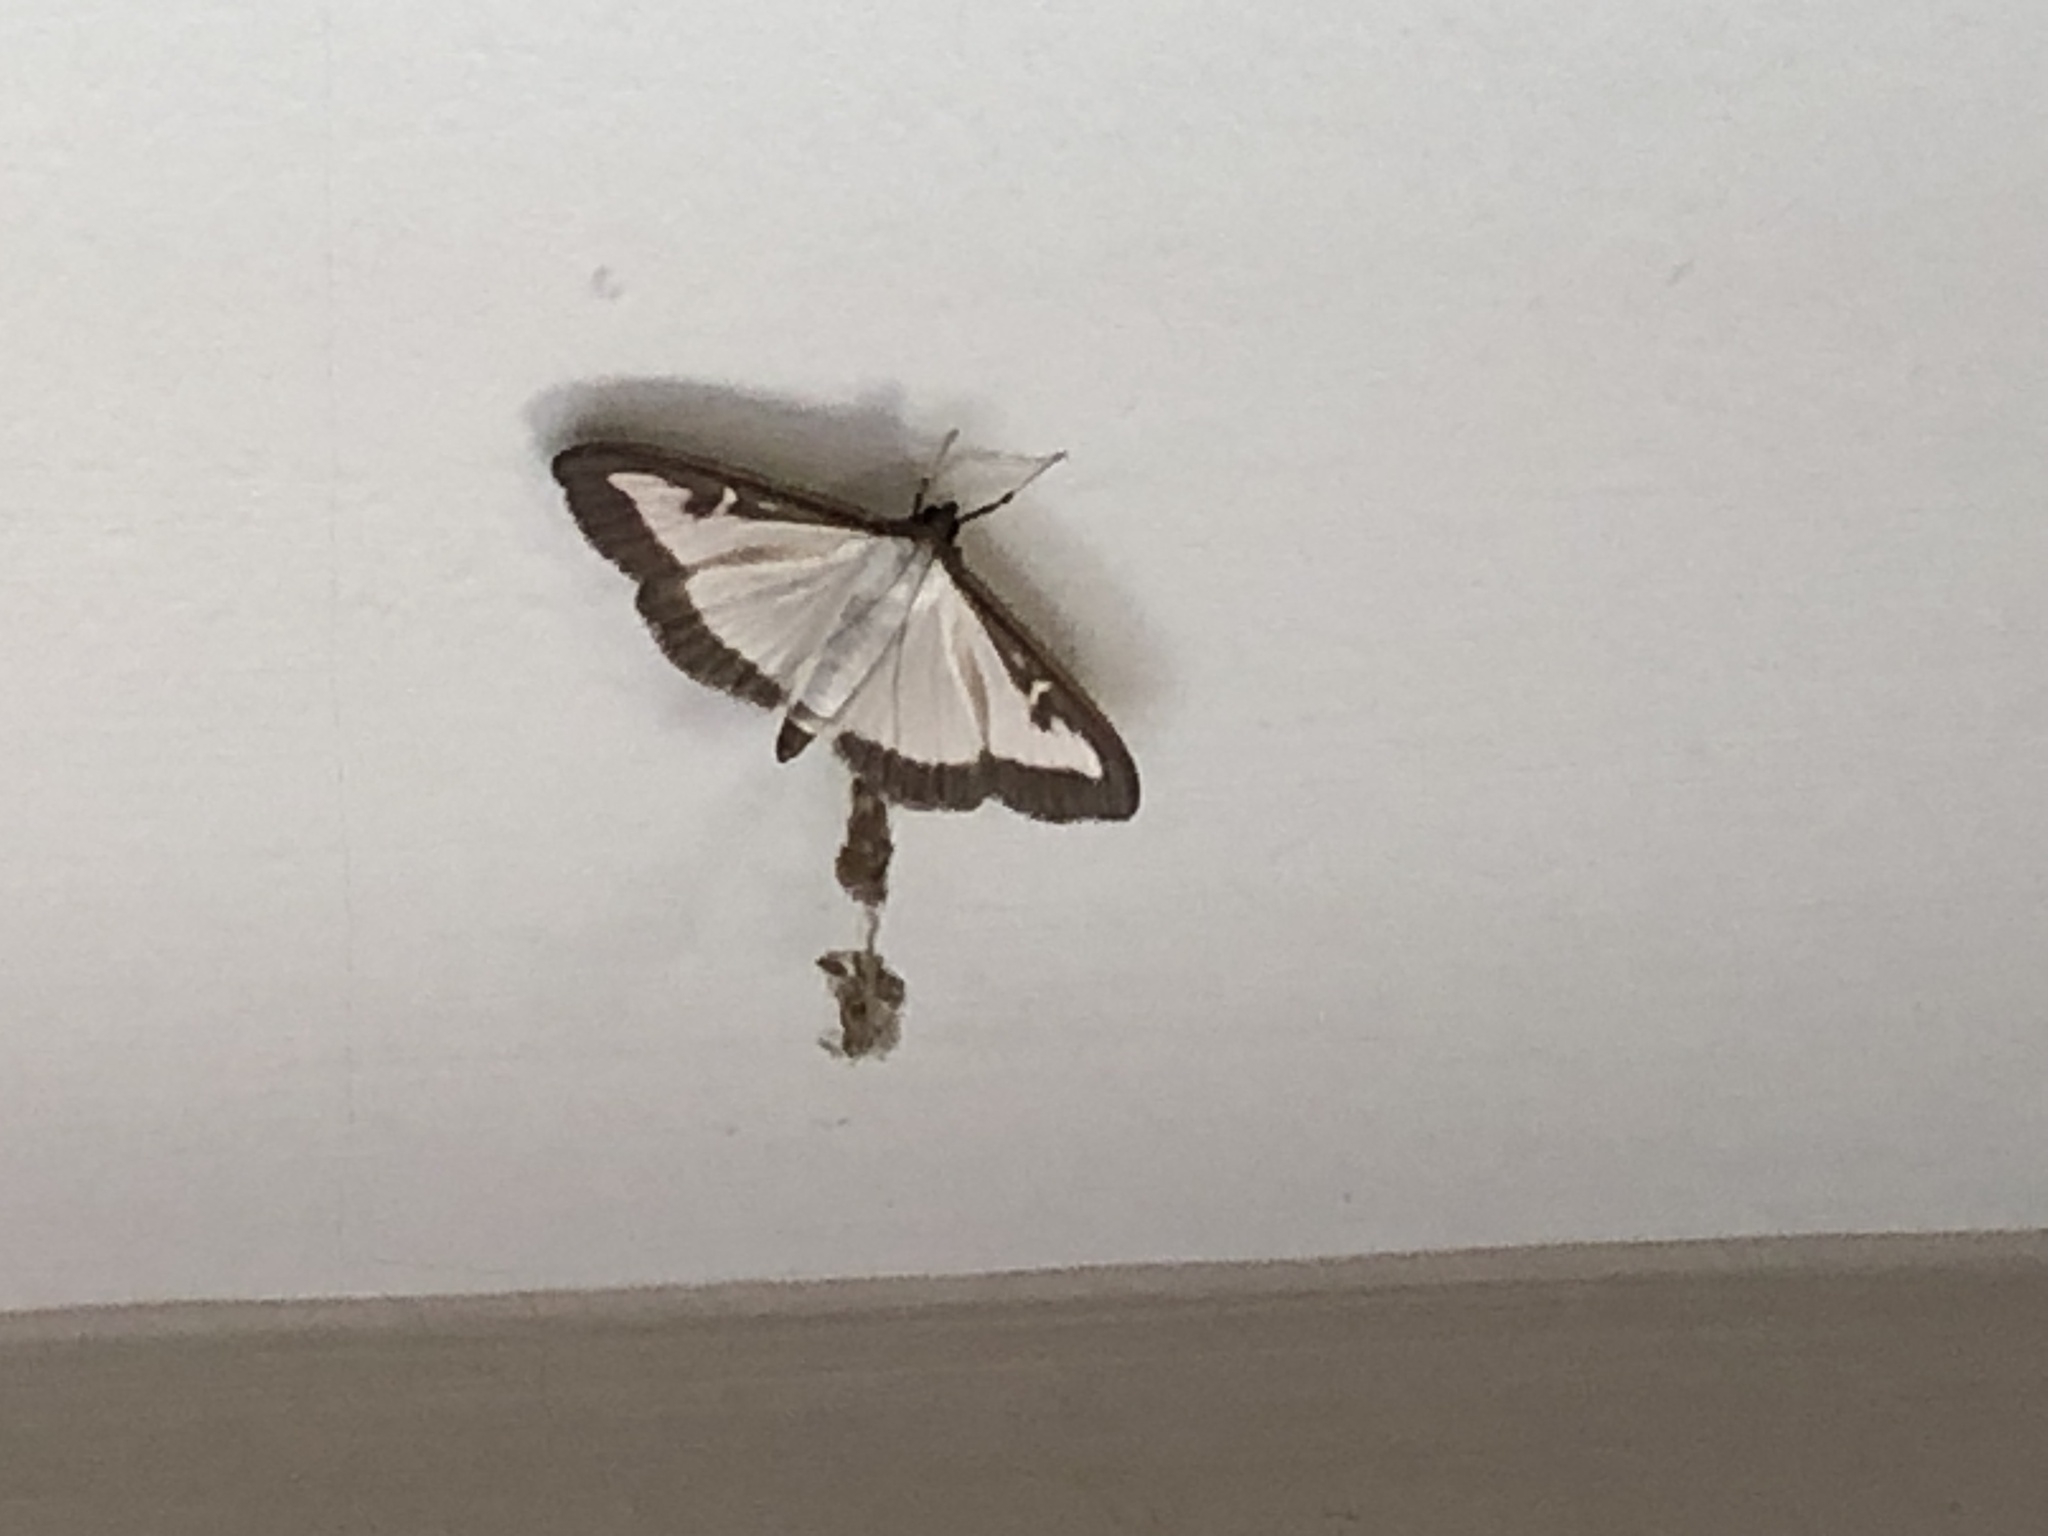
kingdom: Animalia
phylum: Arthropoda
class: Insecta
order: Lepidoptera
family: Crambidae
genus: Cydalima
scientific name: Cydalima perspectalis
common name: Box tree moth
